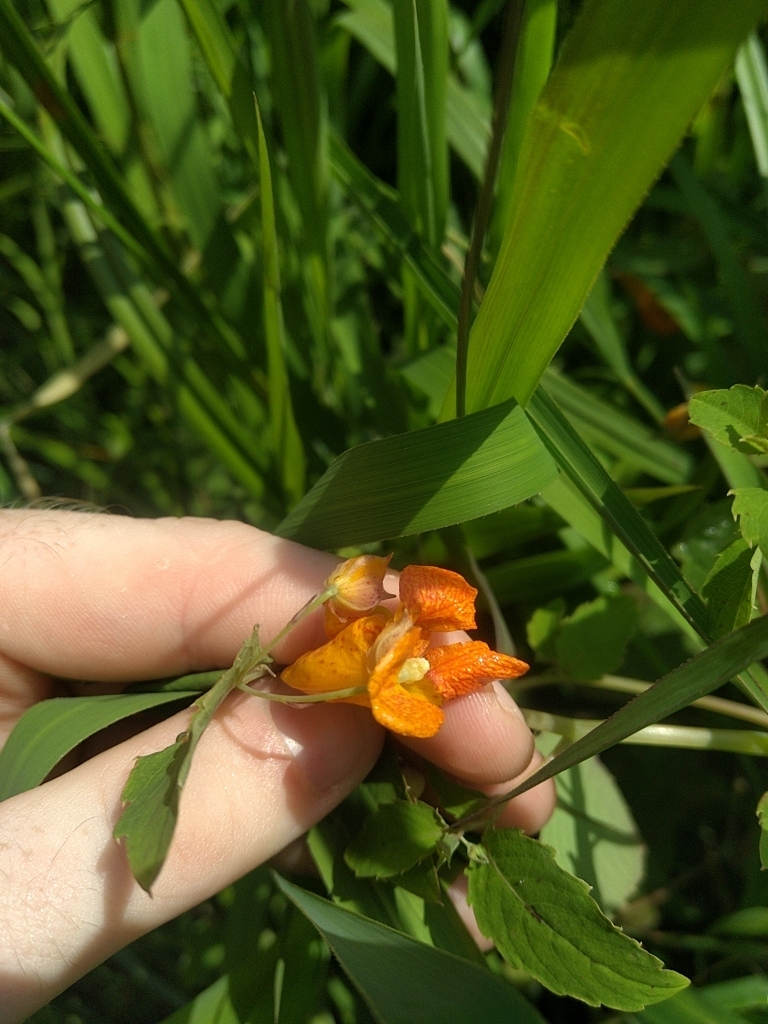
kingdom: Plantae
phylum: Tracheophyta
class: Magnoliopsida
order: Ericales
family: Balsaminaceae
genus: Impatiens
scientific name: Impatiens capensis
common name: Orange balsam
